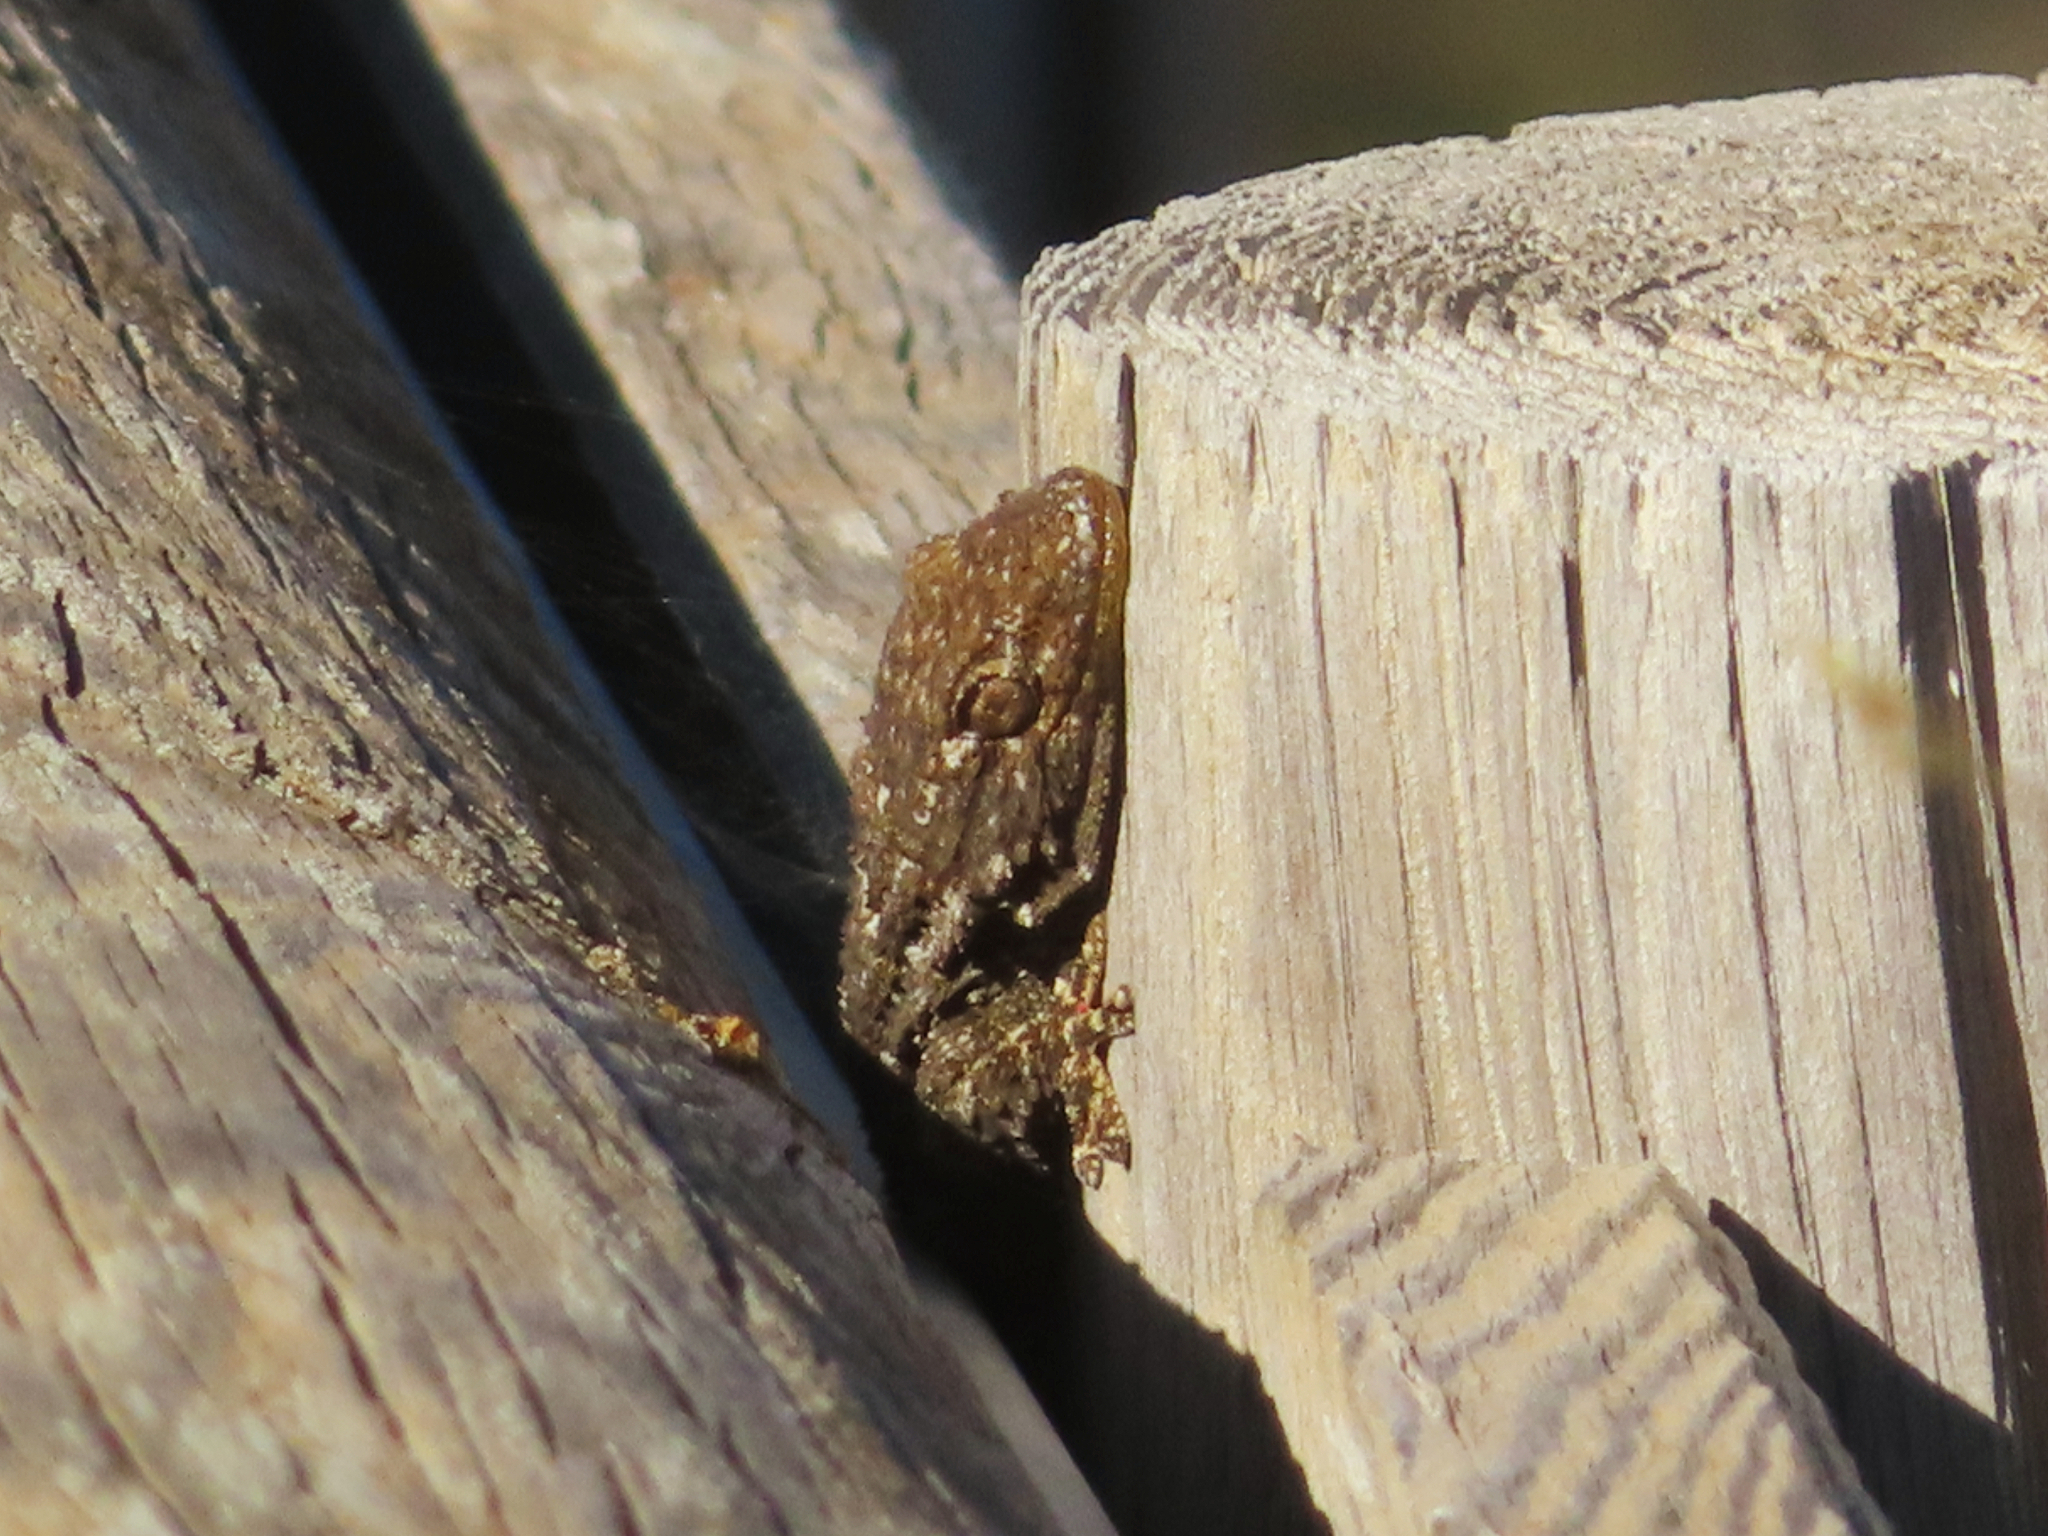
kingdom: Animalia
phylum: Chordata
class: Squamata
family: Phyllodactylidae
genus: Tarentola
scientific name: Tarentola mauritanica
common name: Moorish gecko
